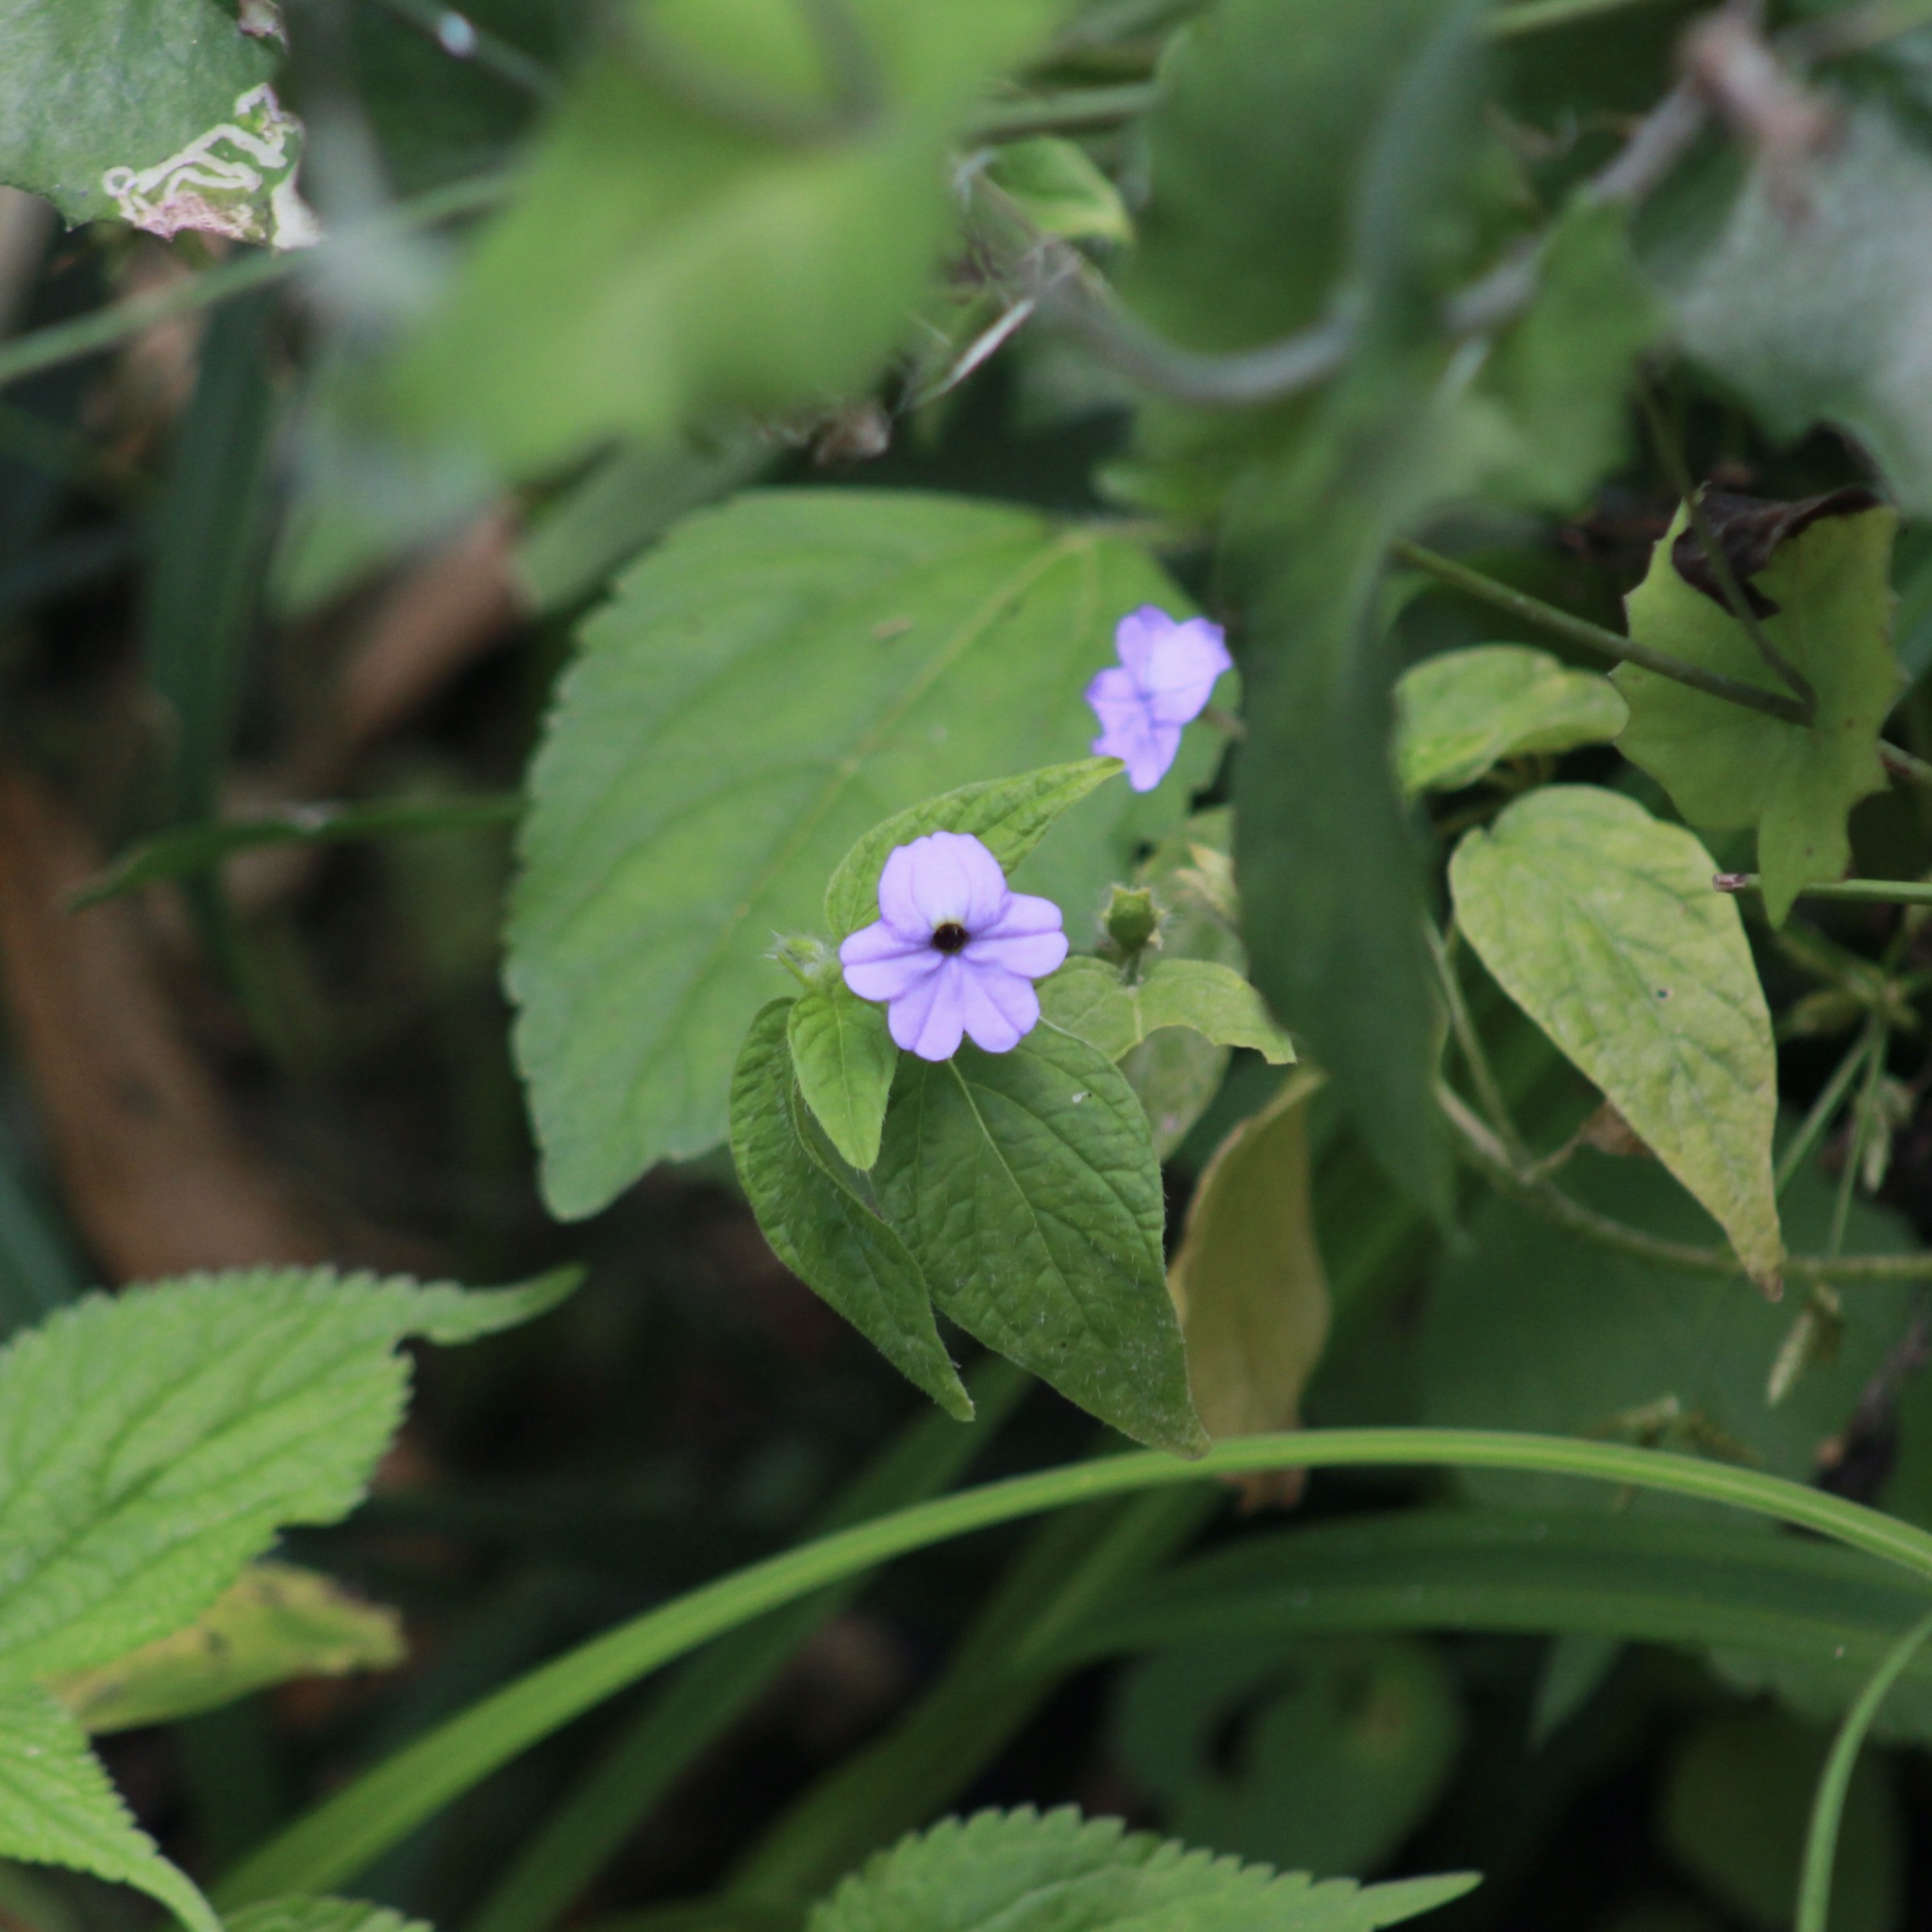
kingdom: Plantae
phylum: Tracheophyta
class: Magnoliopsida
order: Solanales
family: Solanaceae
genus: Browallia
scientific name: Browallia americana
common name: Jamaican forget-me-not
